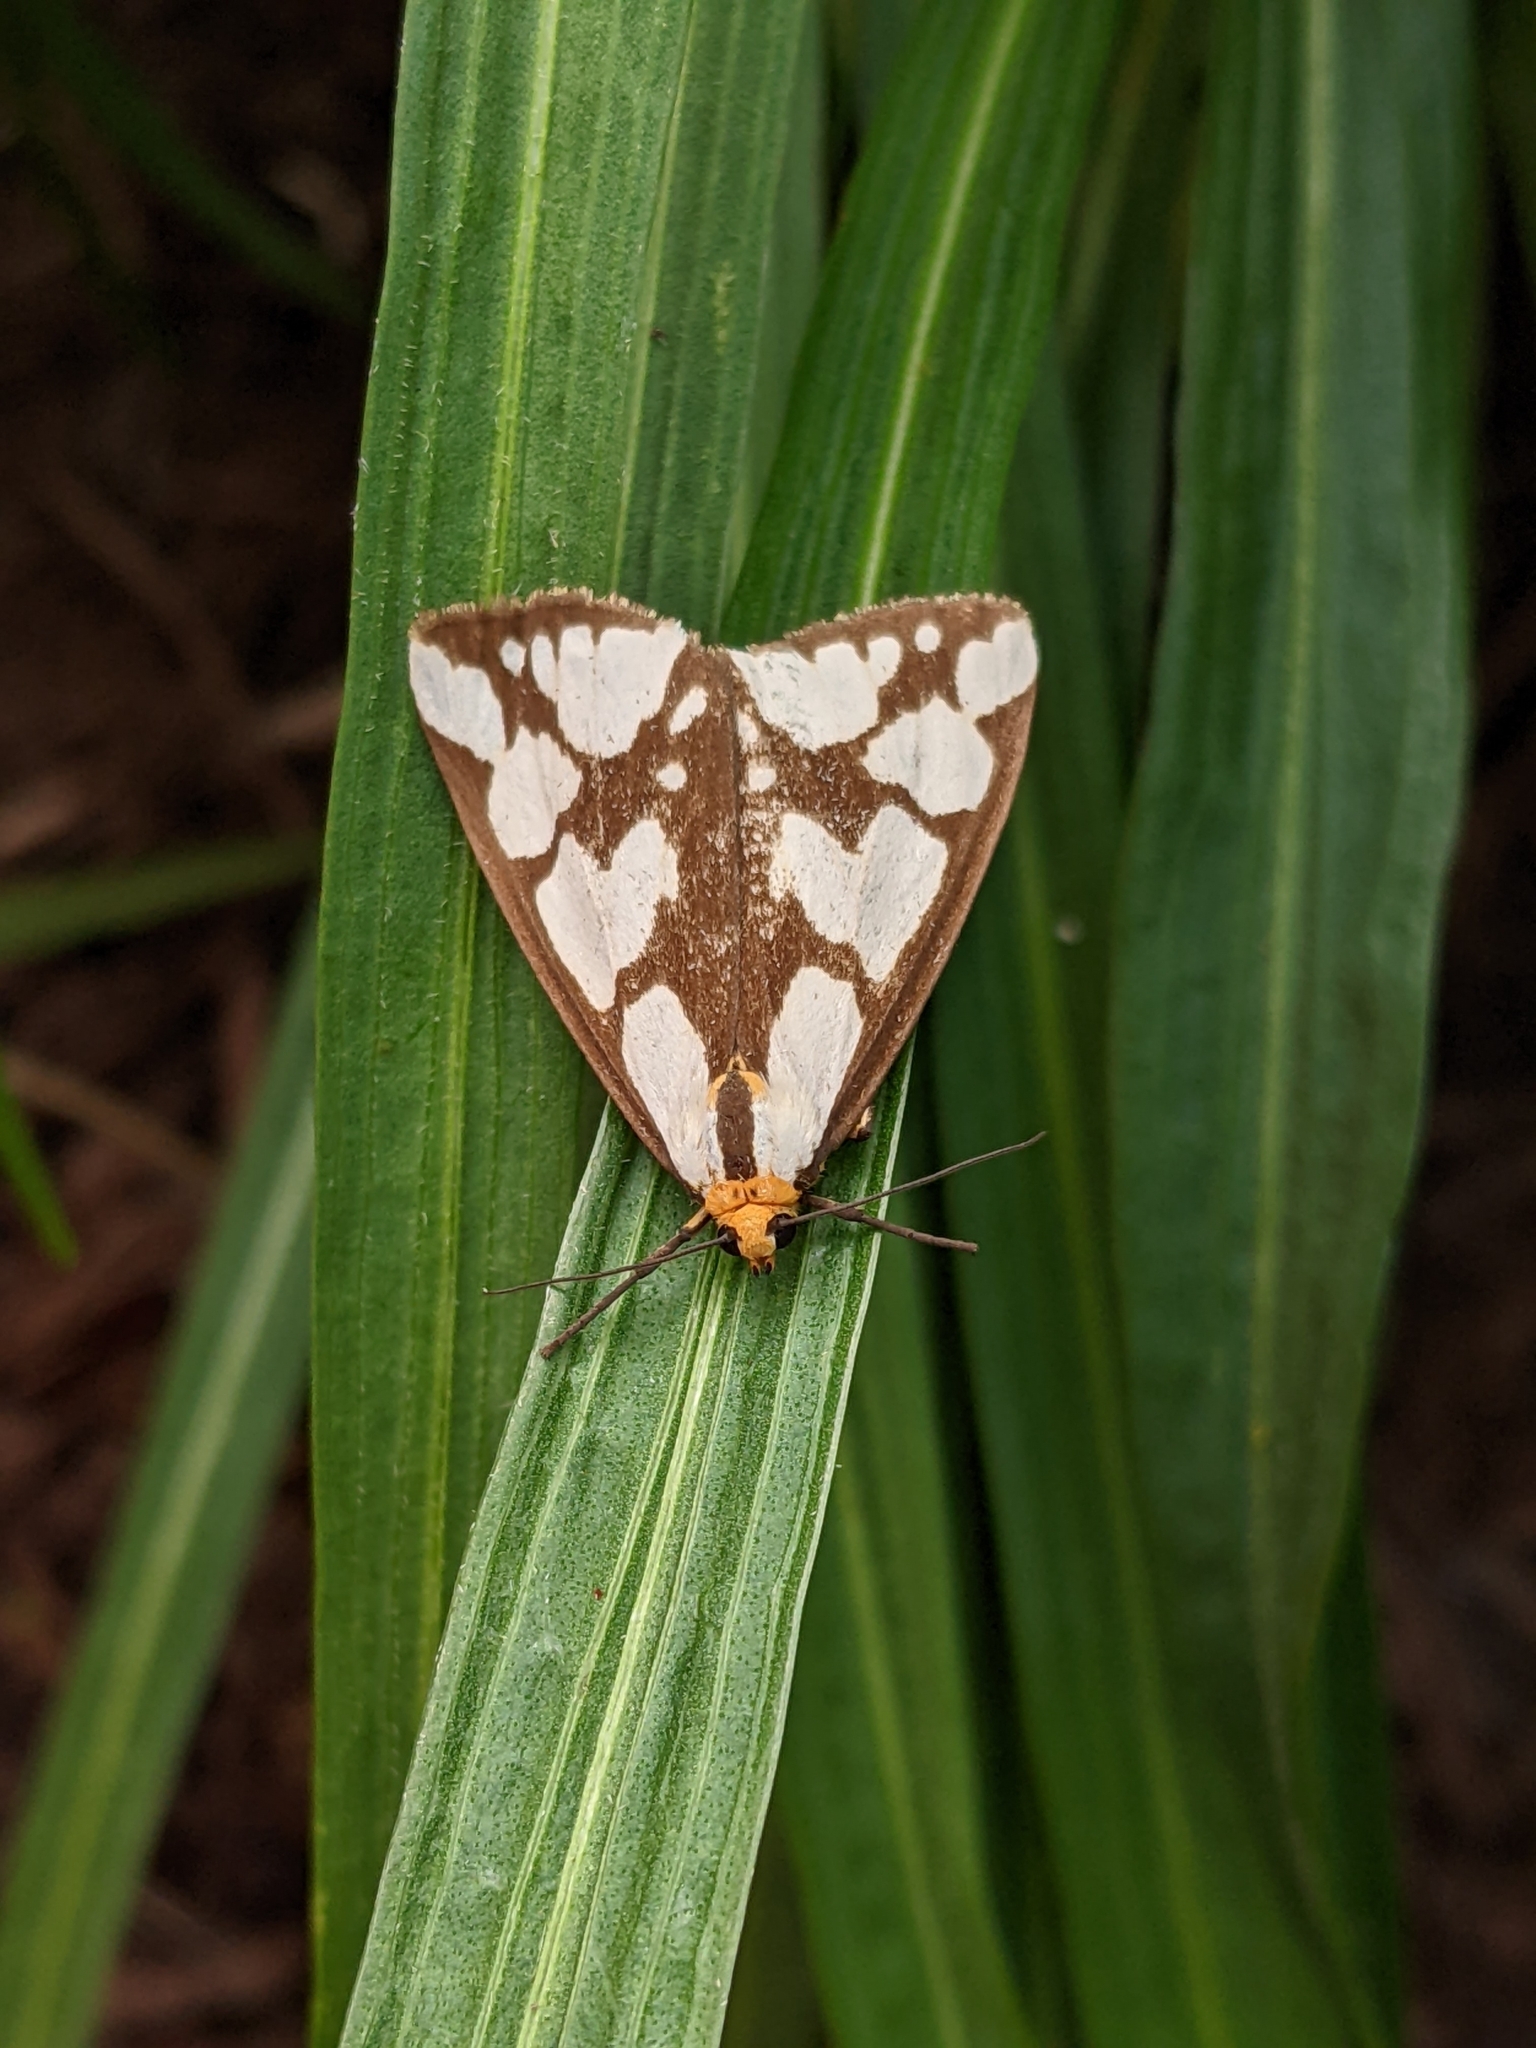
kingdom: Animalia
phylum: Arthropoda
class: Insecta
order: Lepidoptera
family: Erebidae
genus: Haploa
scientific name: Haploa confusa
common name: Confused haploa moth
